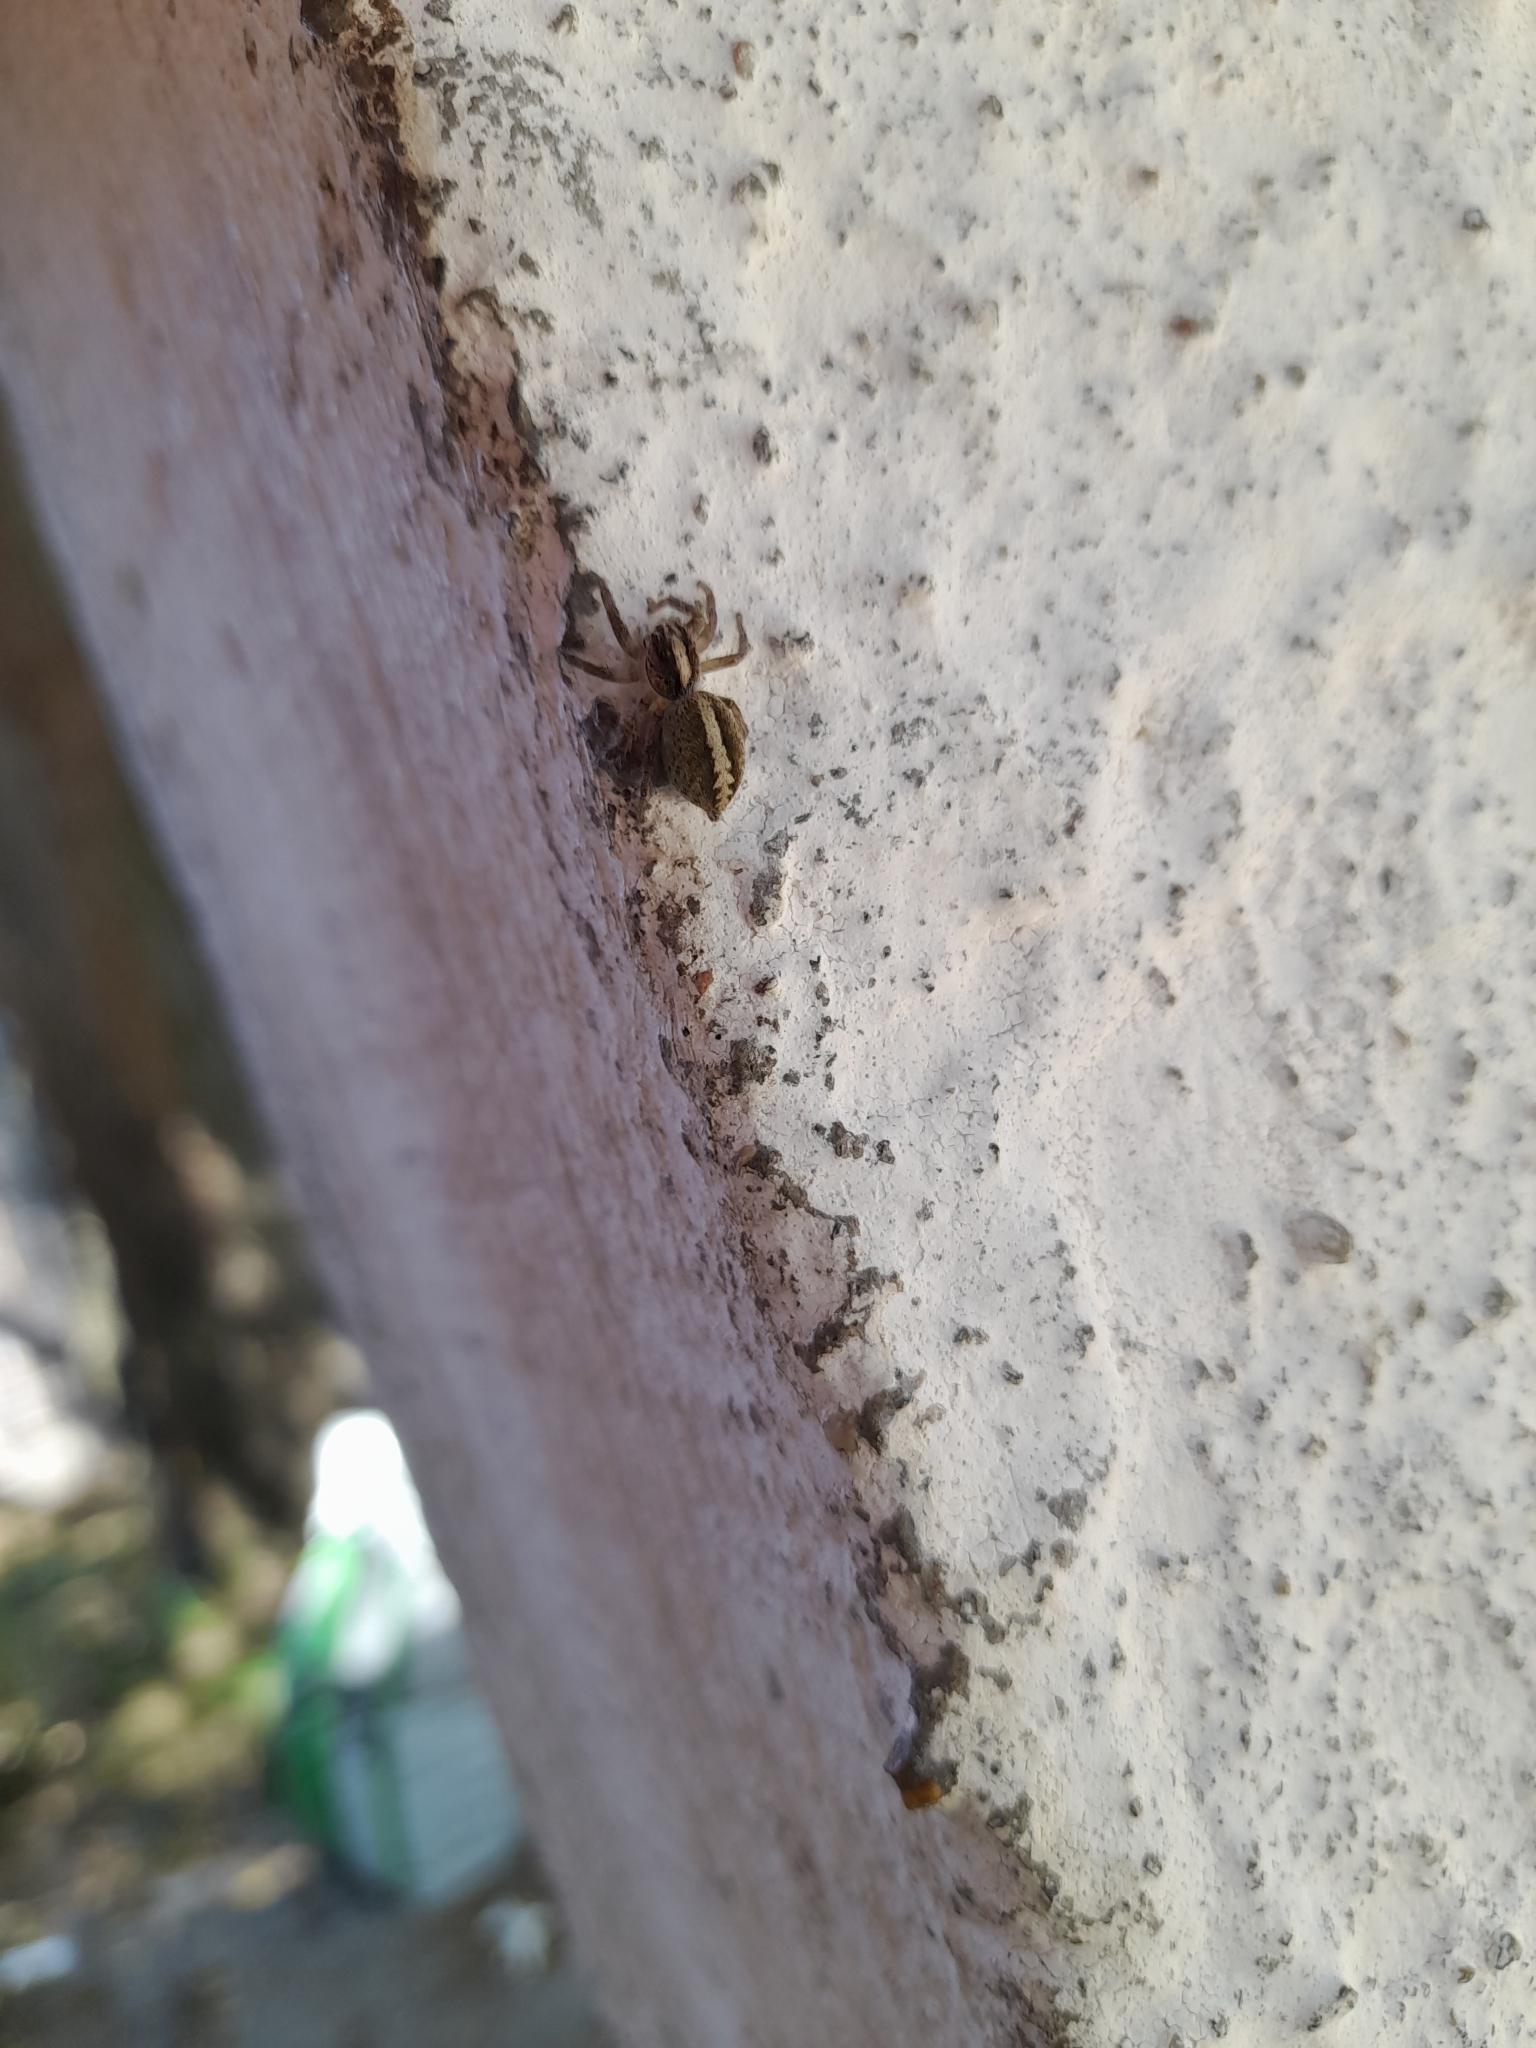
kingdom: Animalia
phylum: Arthropoda
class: Arachnida
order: Araneae
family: Salticidae
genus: Megafreya
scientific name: Megafreya sutrix
